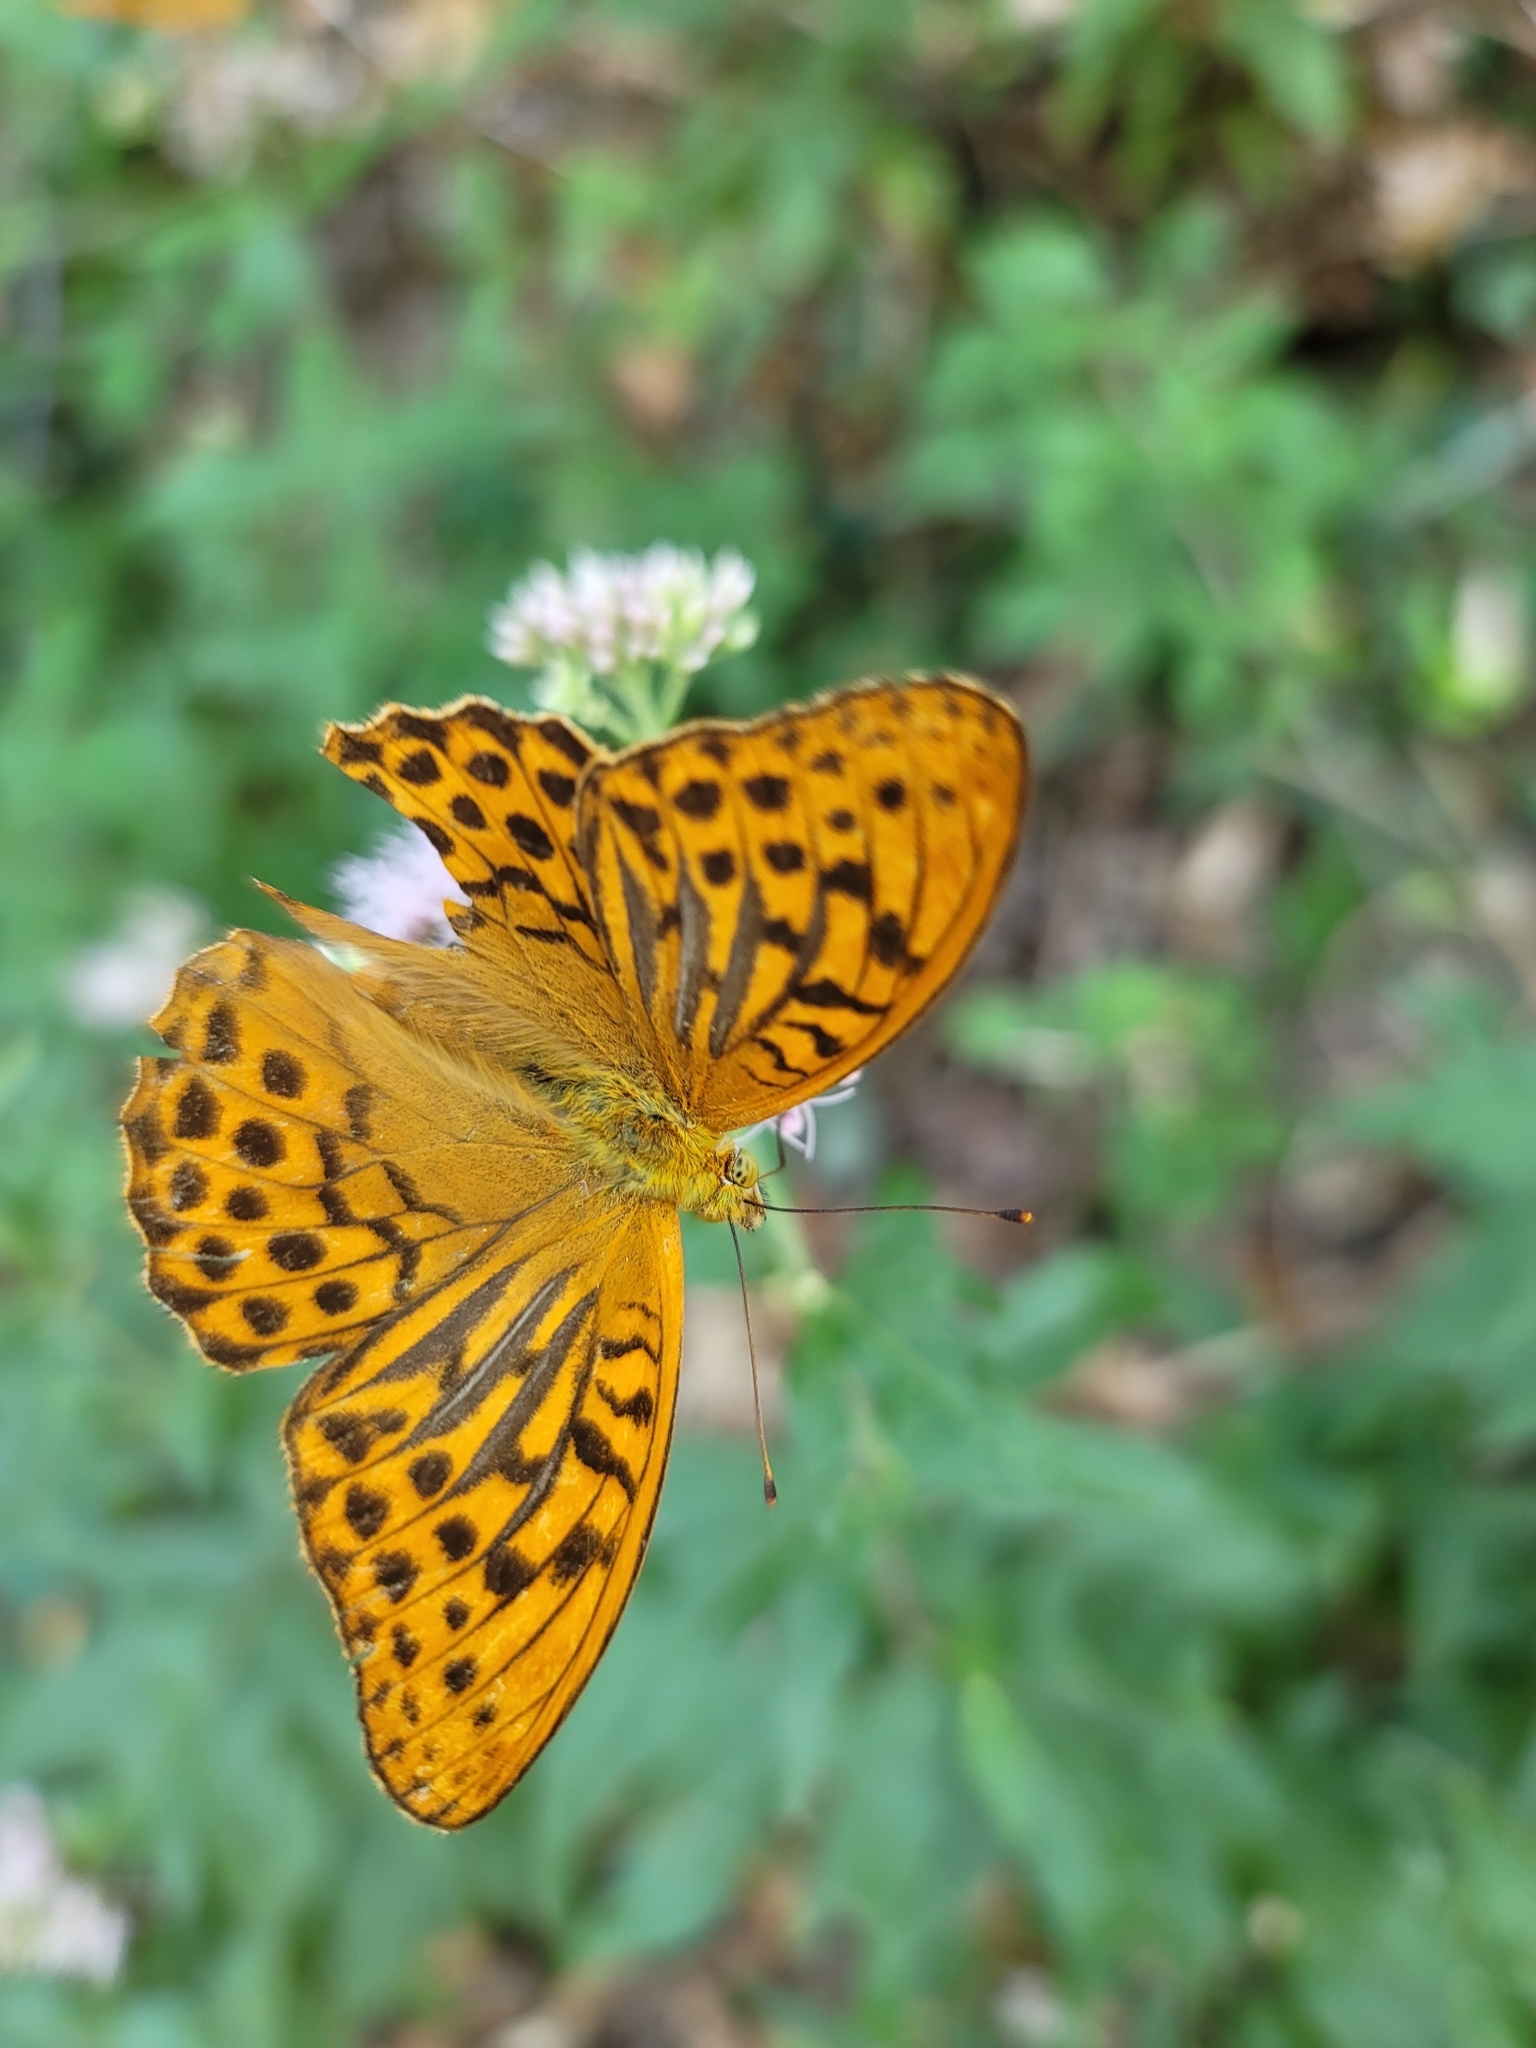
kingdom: Animalia
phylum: Arthropoda
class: Insecta
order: Lepidoptera
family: Nymphalidae
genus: Argynnis
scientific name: Argynnis paphia
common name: Silver-washed fritillary
